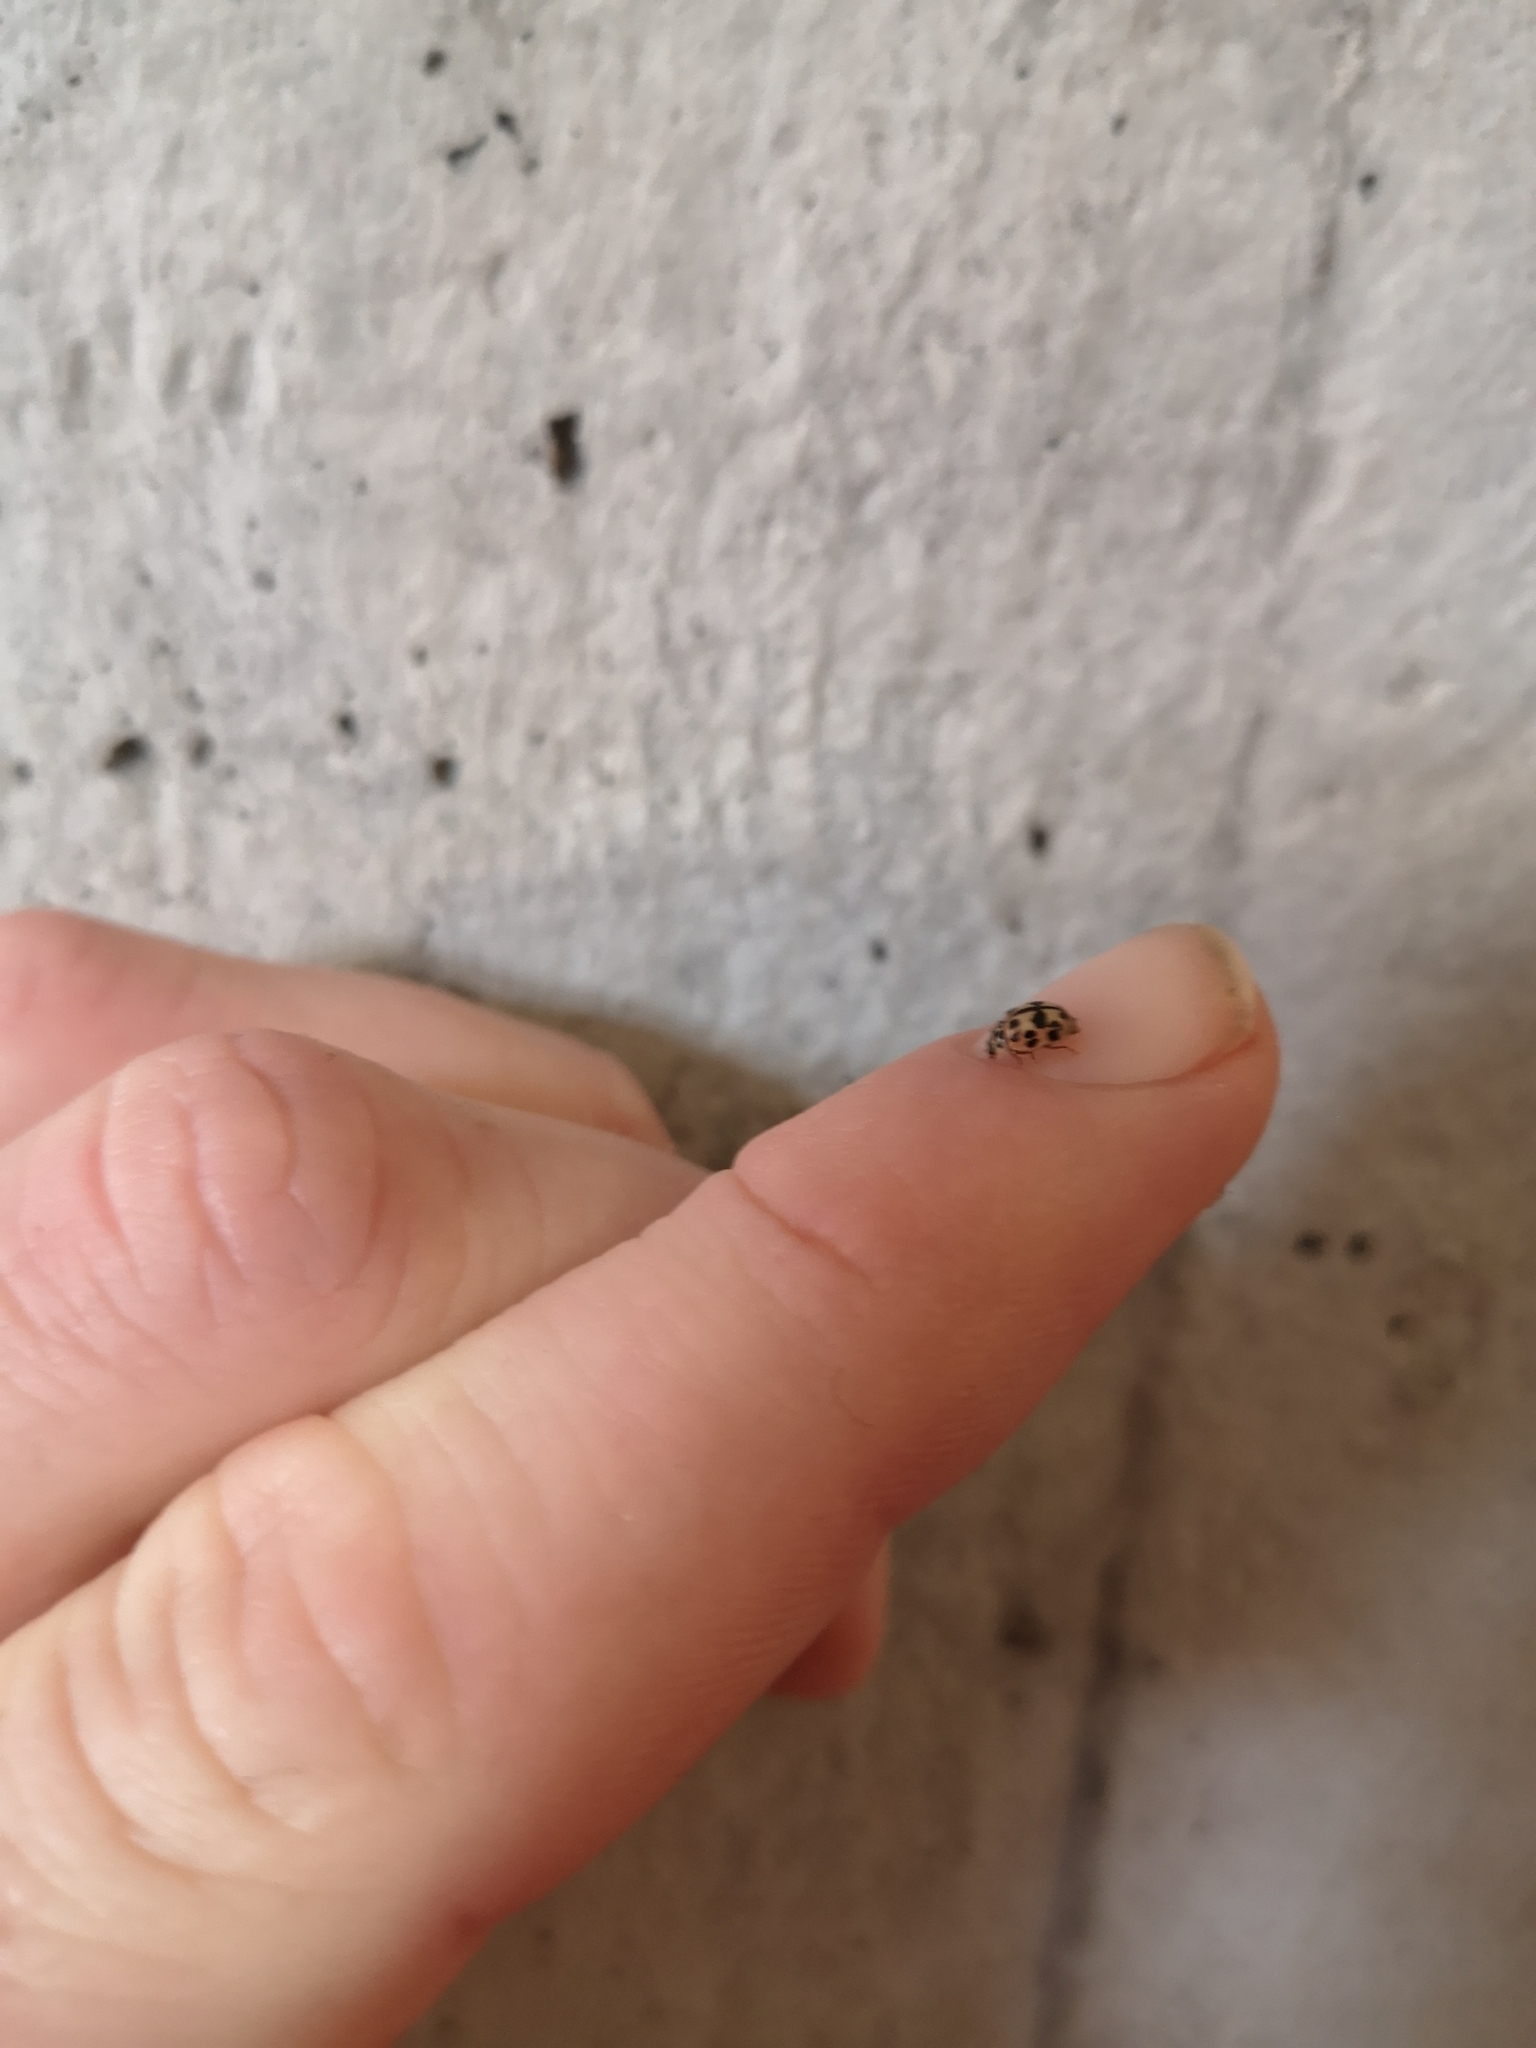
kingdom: Animalia
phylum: Arthropoda
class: Insecta
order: Coleoptera
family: Coccinellidae
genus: Oenopia
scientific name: Oenopia conglobata
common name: Ladybird beetle
